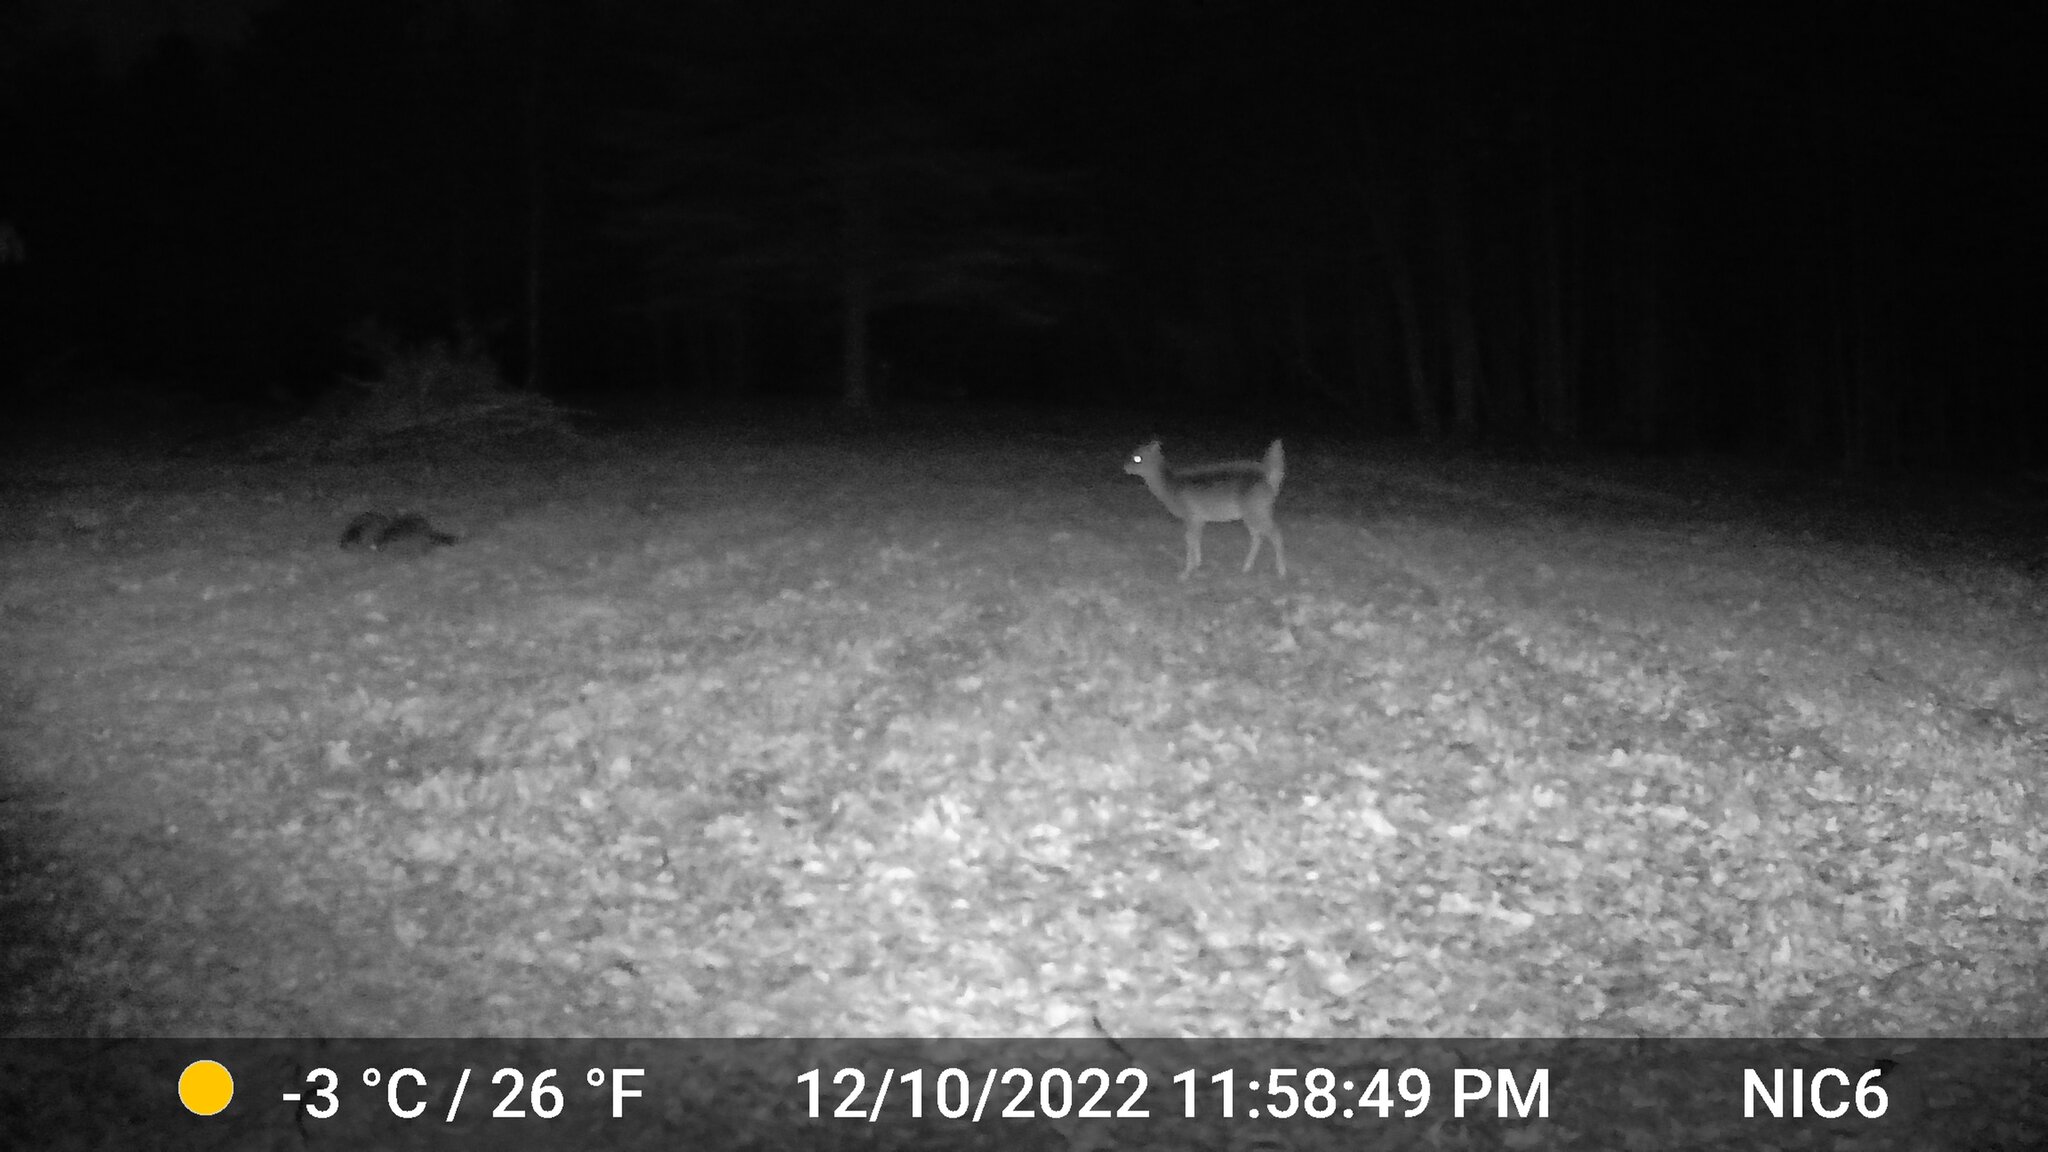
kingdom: Animalia
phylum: Chordata
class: Mammalia
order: Artiodactyla
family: Cervidae
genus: Odocoileus
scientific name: Odocoileus virginianus
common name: White-tailed deer
